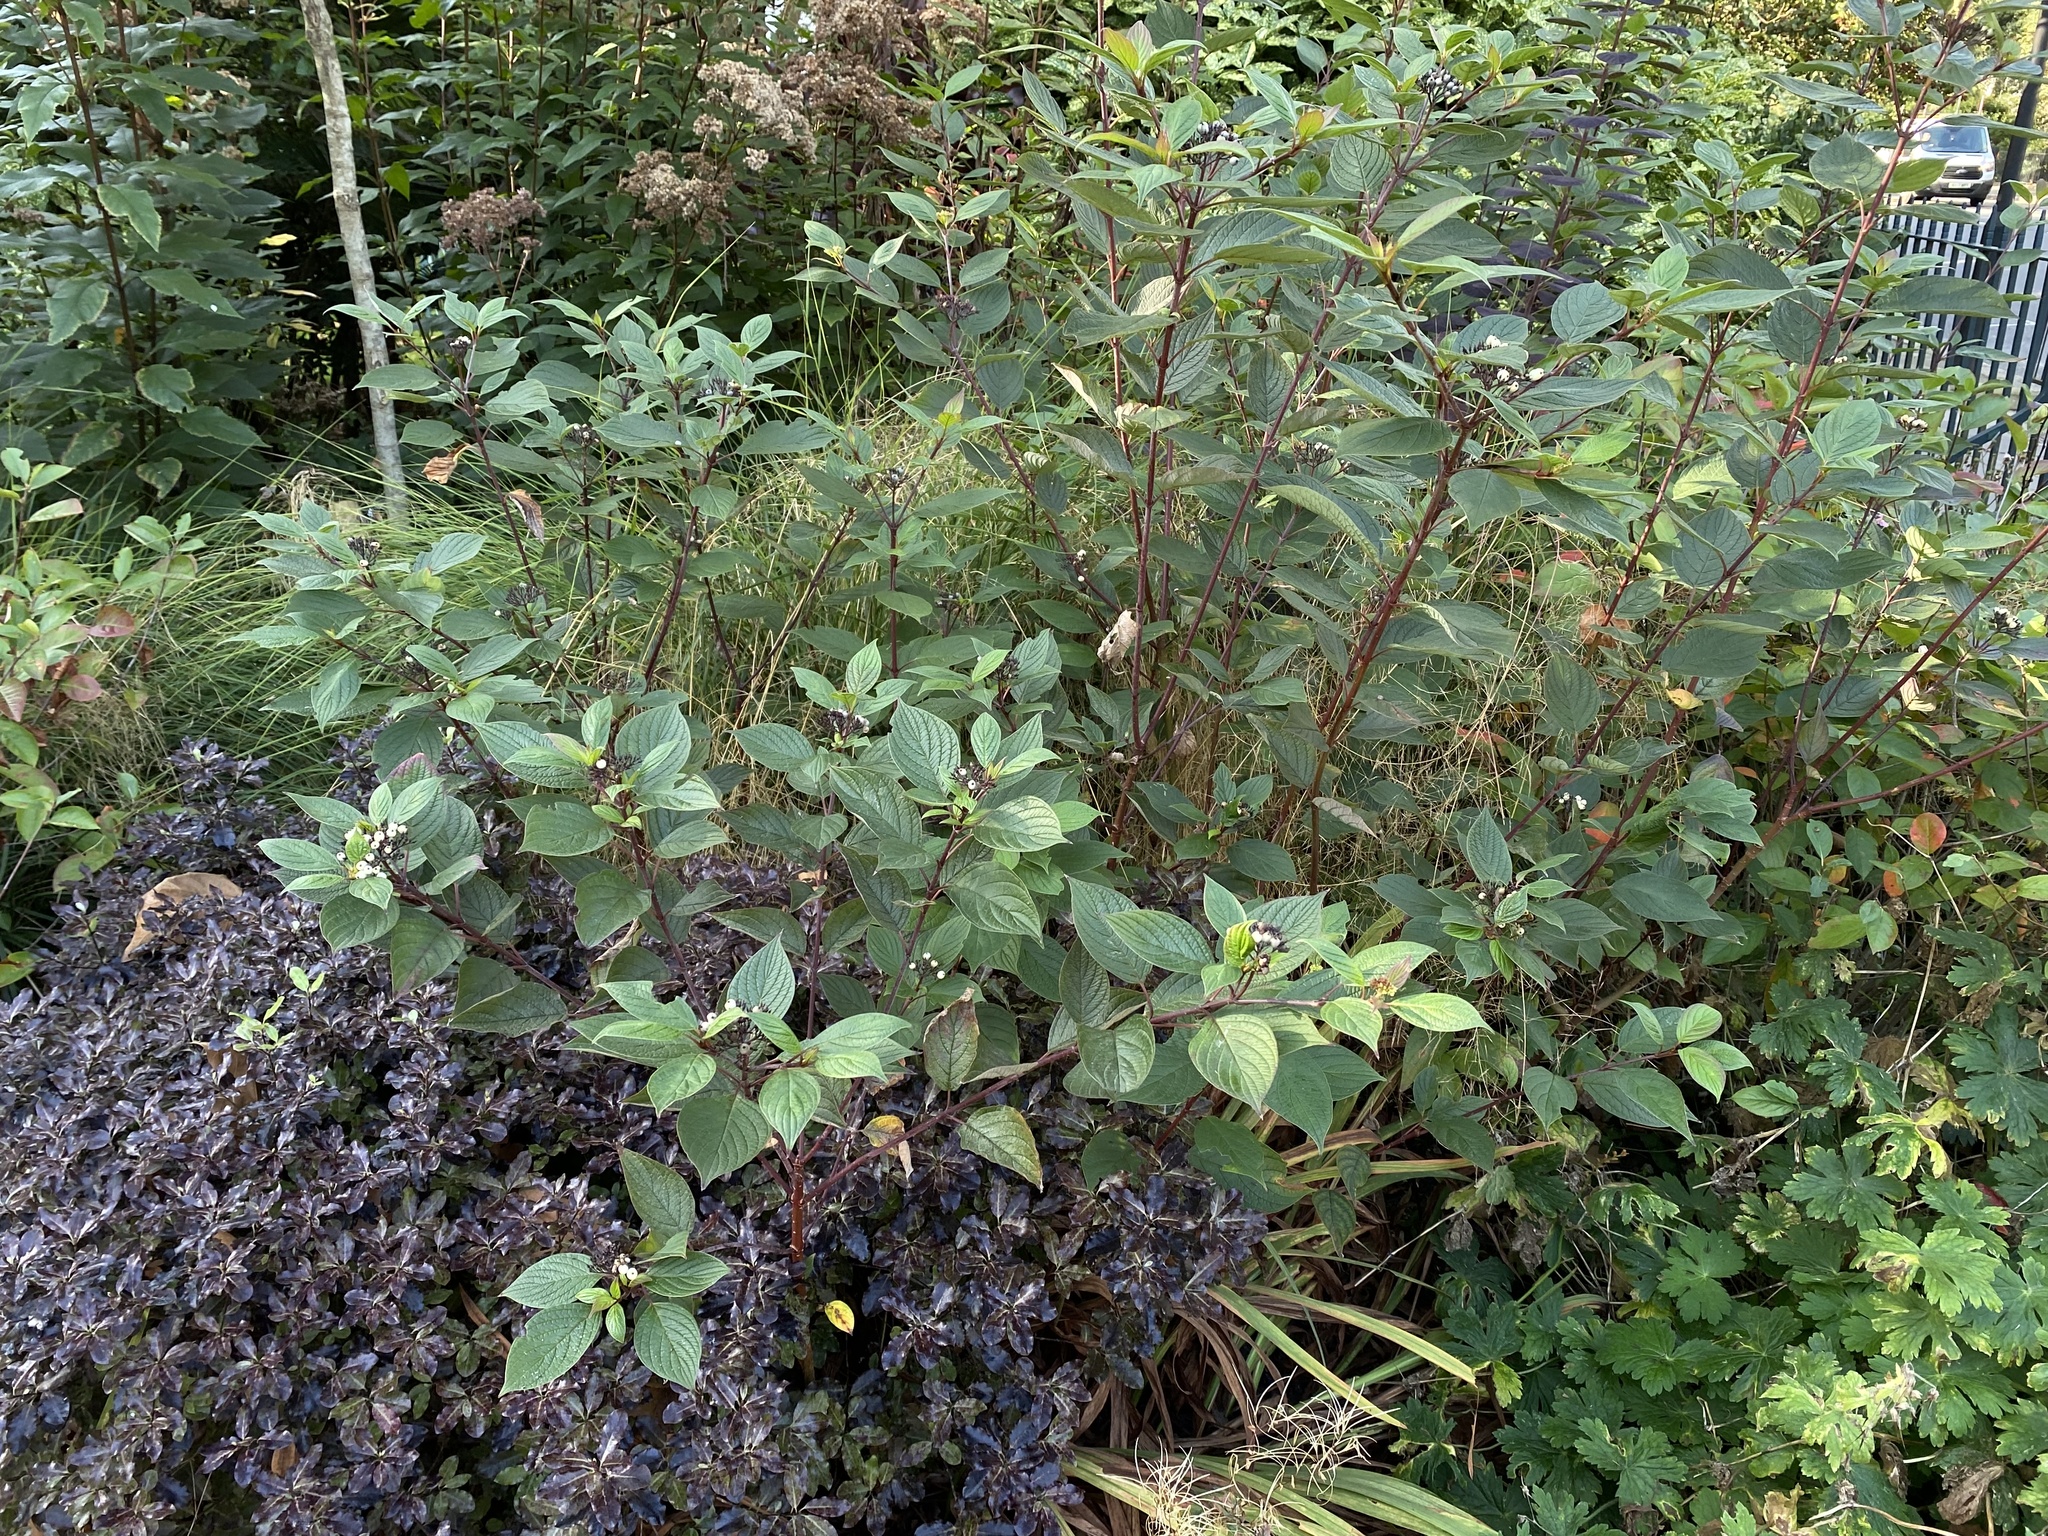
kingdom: Plantae
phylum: Tracheophyta
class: Magnoliopsida
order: Cornales
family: Cornaceae
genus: Cornus
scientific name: Cornus sericea
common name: Red-osier dogwood
